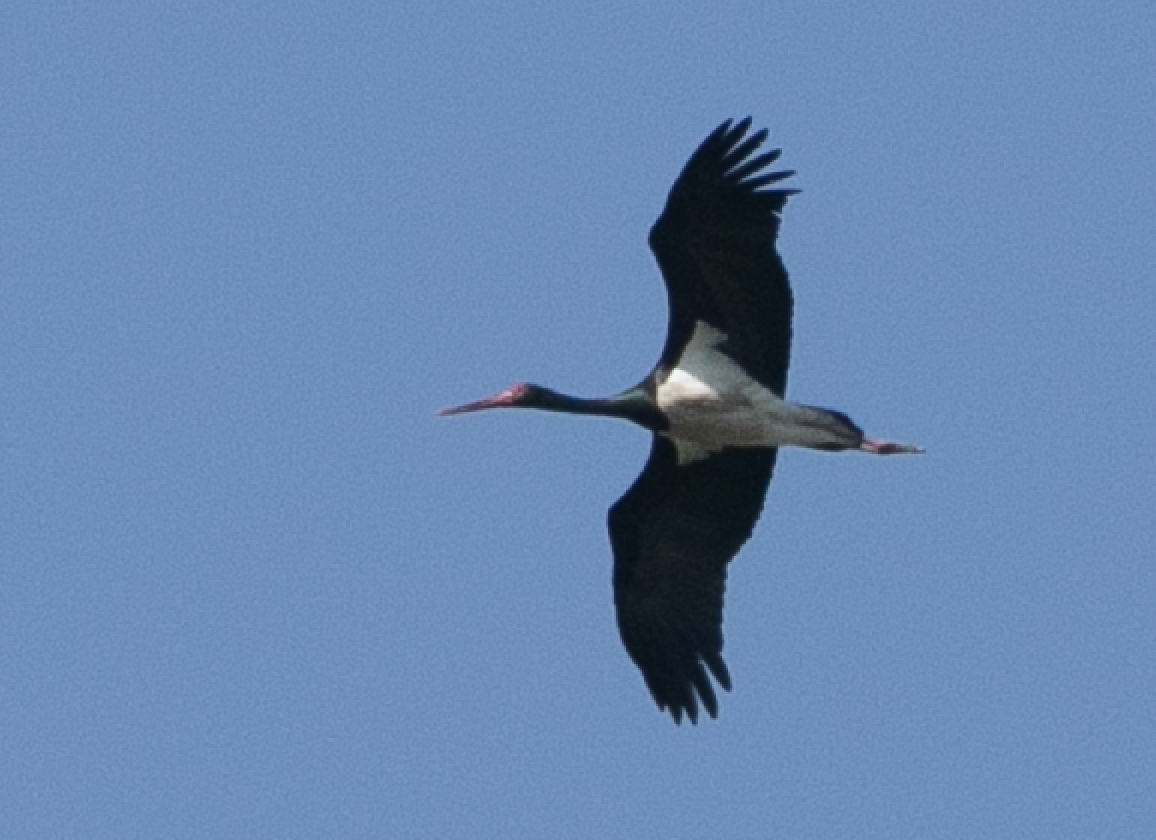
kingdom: Animalia
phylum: Chordata
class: Aves
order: Ciconiiformes
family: Ciconiidae
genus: Ciconia
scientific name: Ciconia nigra
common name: Black stork
